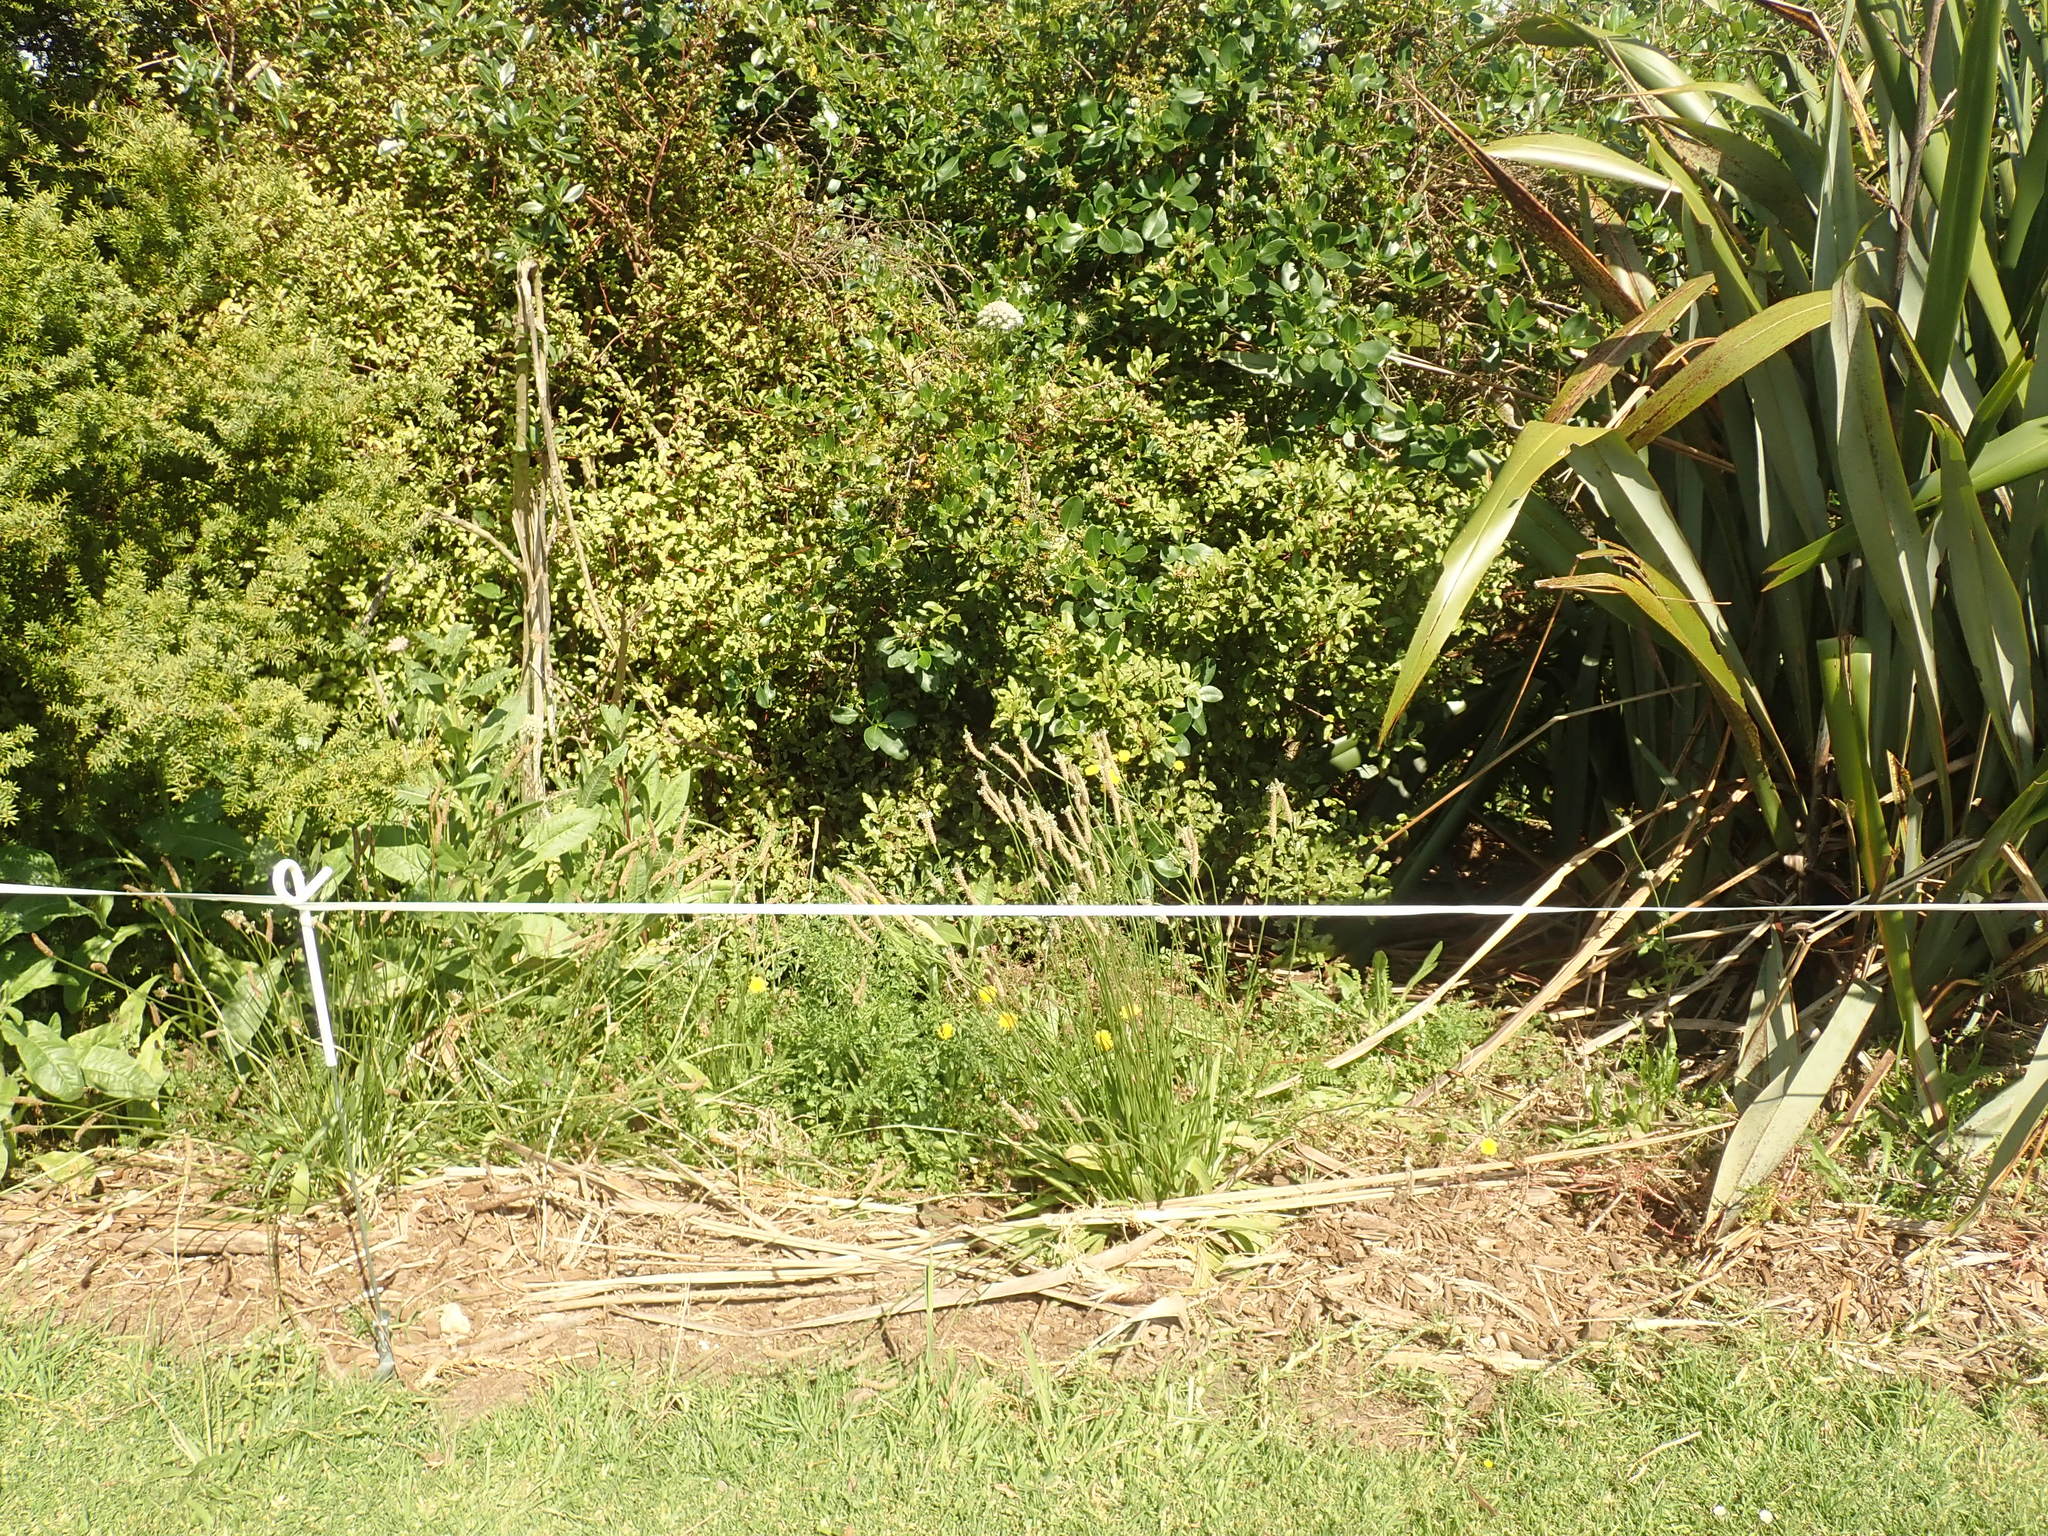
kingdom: Plantae
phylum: Tracheophyta
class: Magnoliopsida
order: Gentianales
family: Rubiaceae
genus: Coprosma
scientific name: Coprosma robusta
